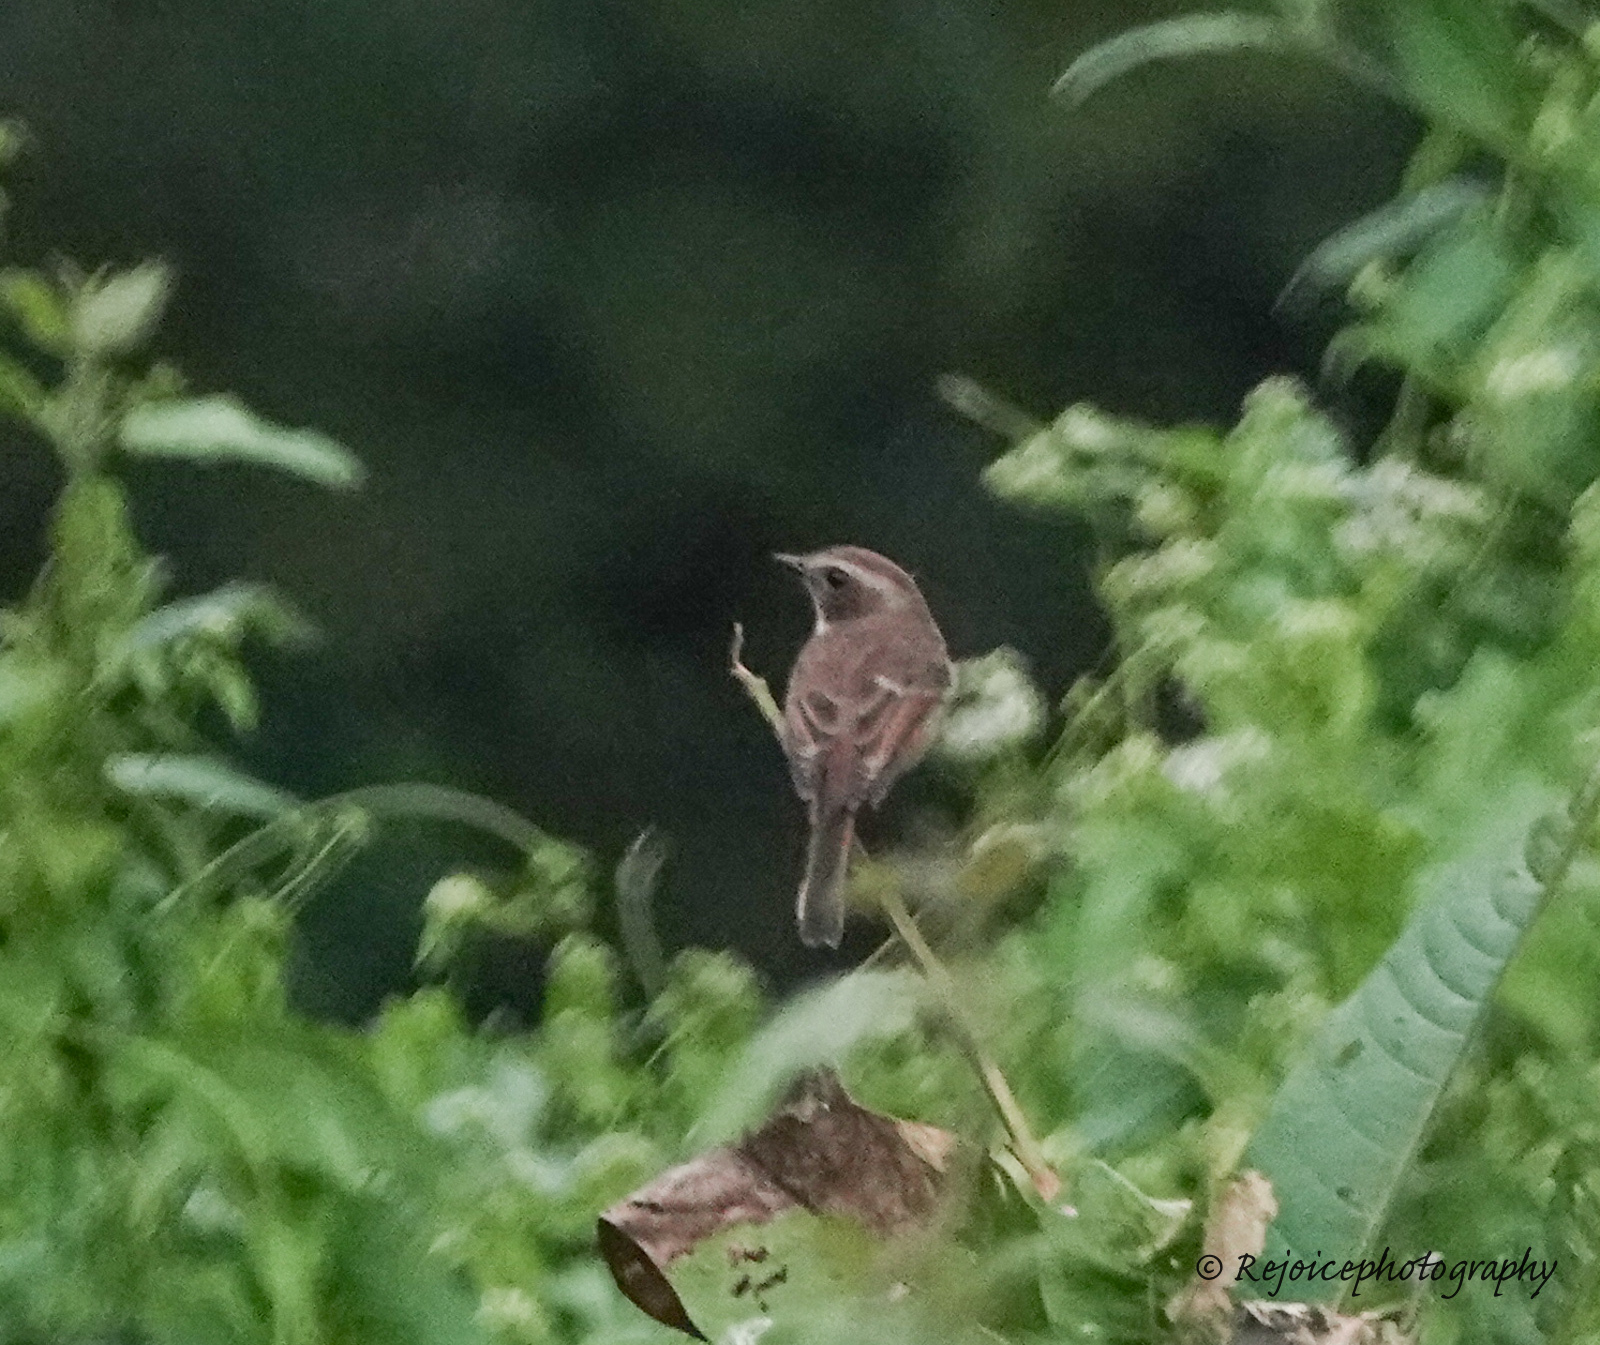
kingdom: Animalia
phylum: Chordata
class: Aves
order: Passeriformes
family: Muscicapidae
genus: Saxicola
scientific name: Saxicola ferreus
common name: Grey bush chat
